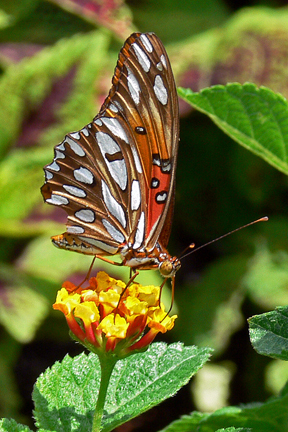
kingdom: Animalia
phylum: Arthropoda
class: Insecta
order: Lepidoptera
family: Nymphalidae
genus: Dione
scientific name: Dione vanillae
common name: Gulf fritillary
